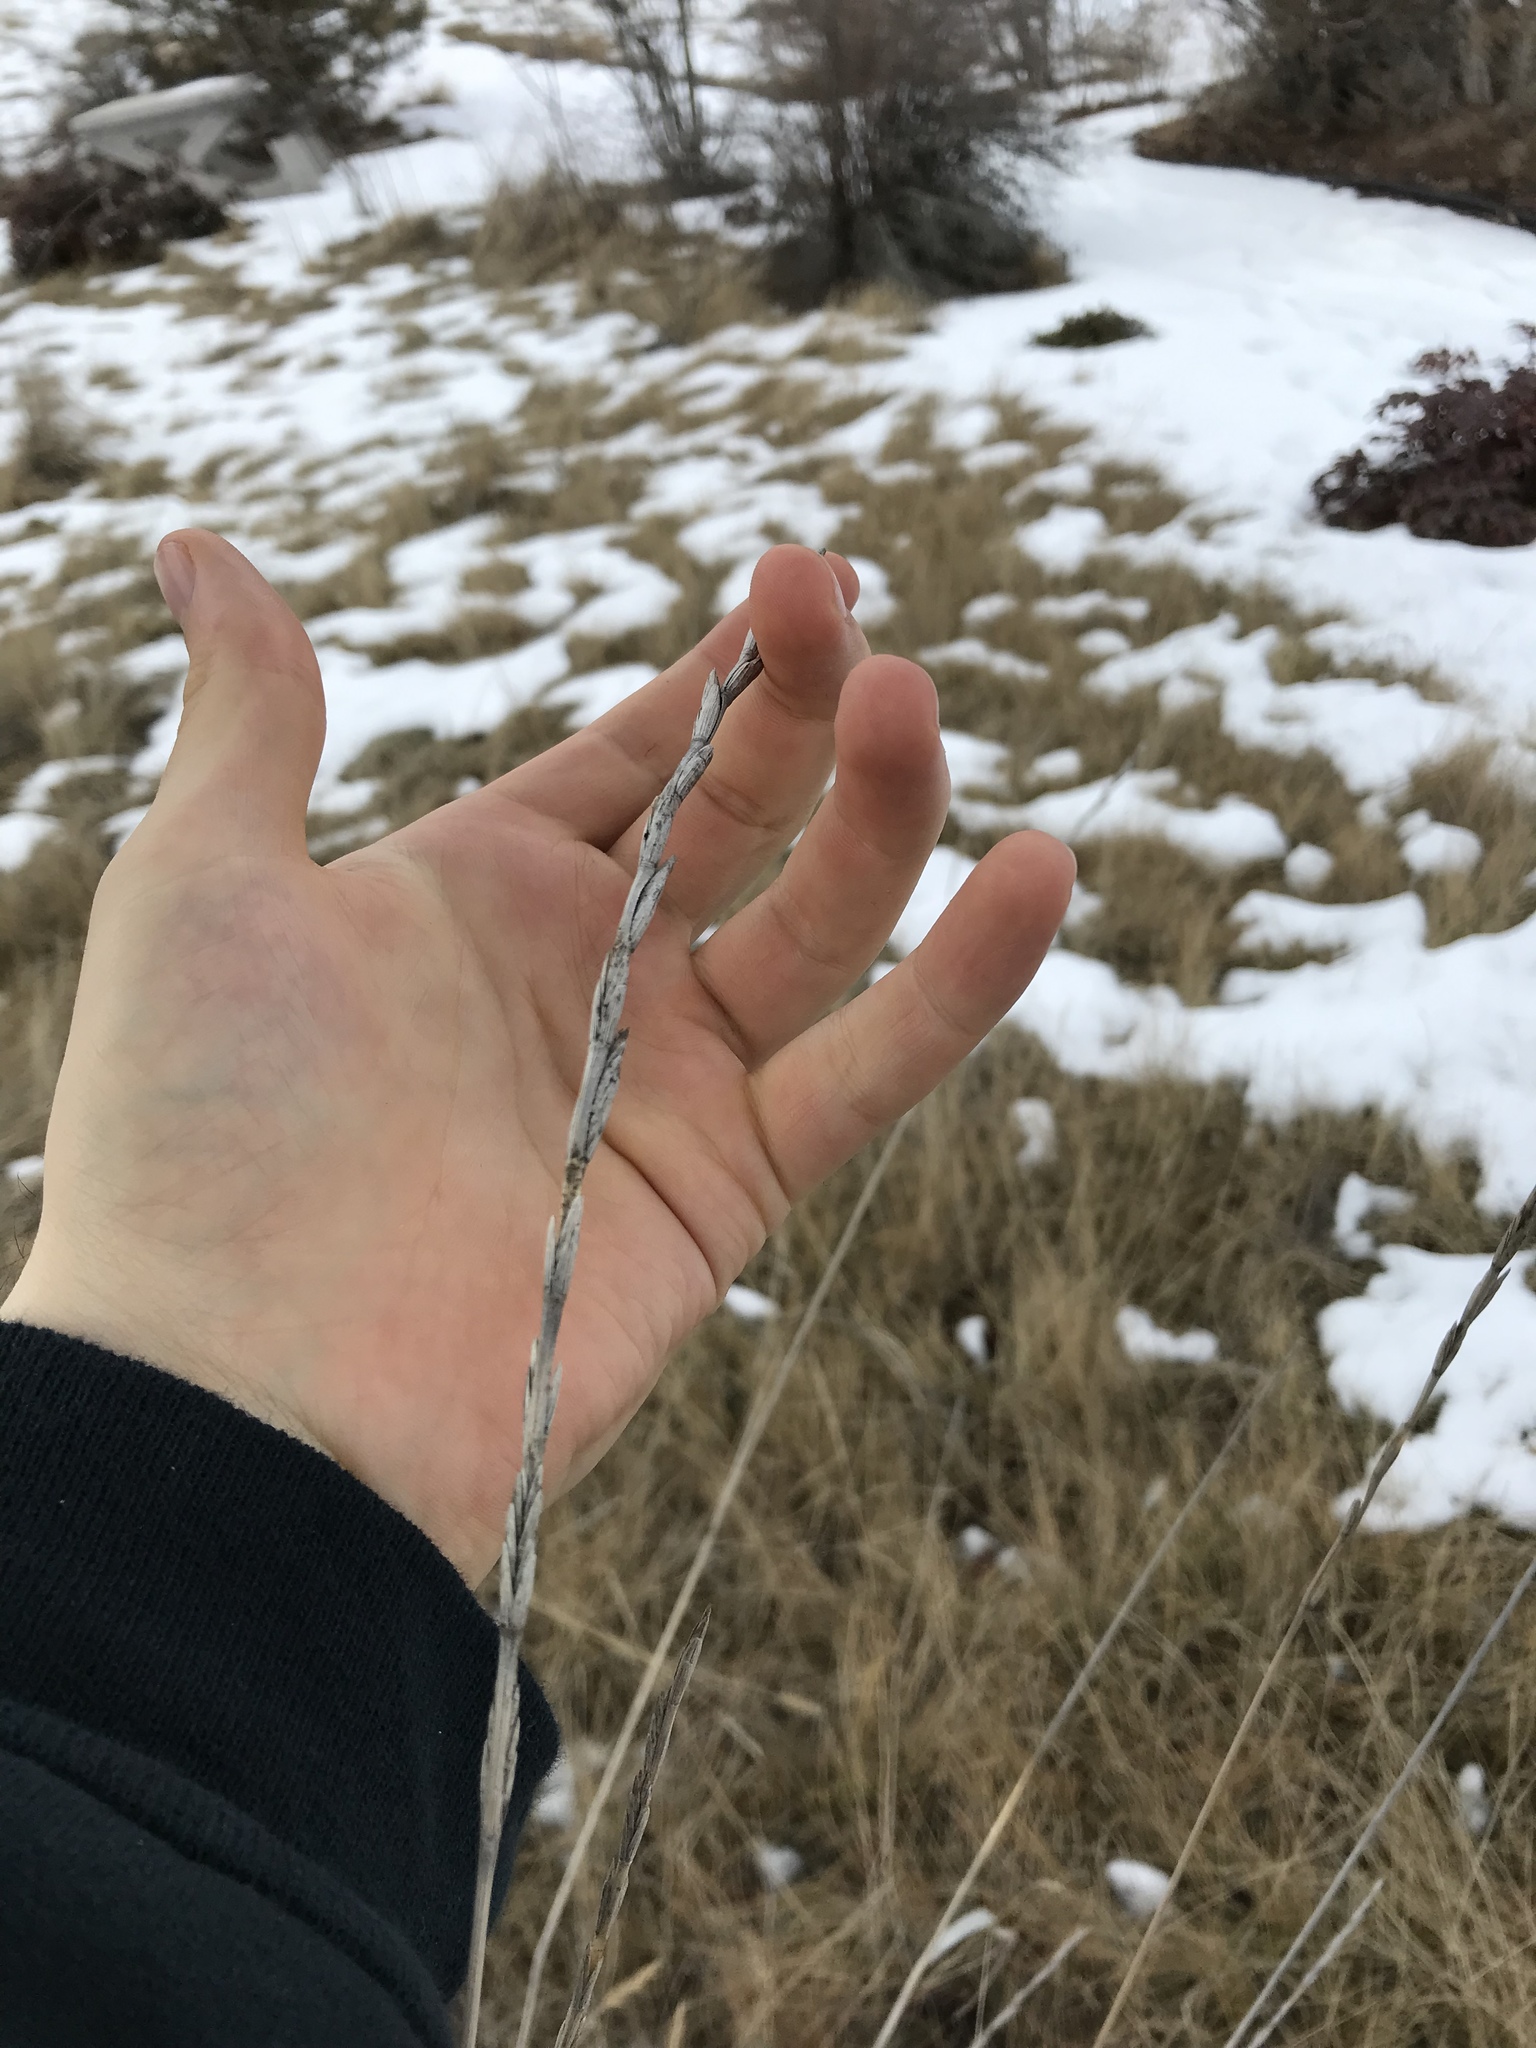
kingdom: Plantae
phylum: Tracheophyta
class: Liliopsida
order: Poales
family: Poaceae
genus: Thinopyrum
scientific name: Thinopyrum intermedium
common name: Intermediate wheatgrass
